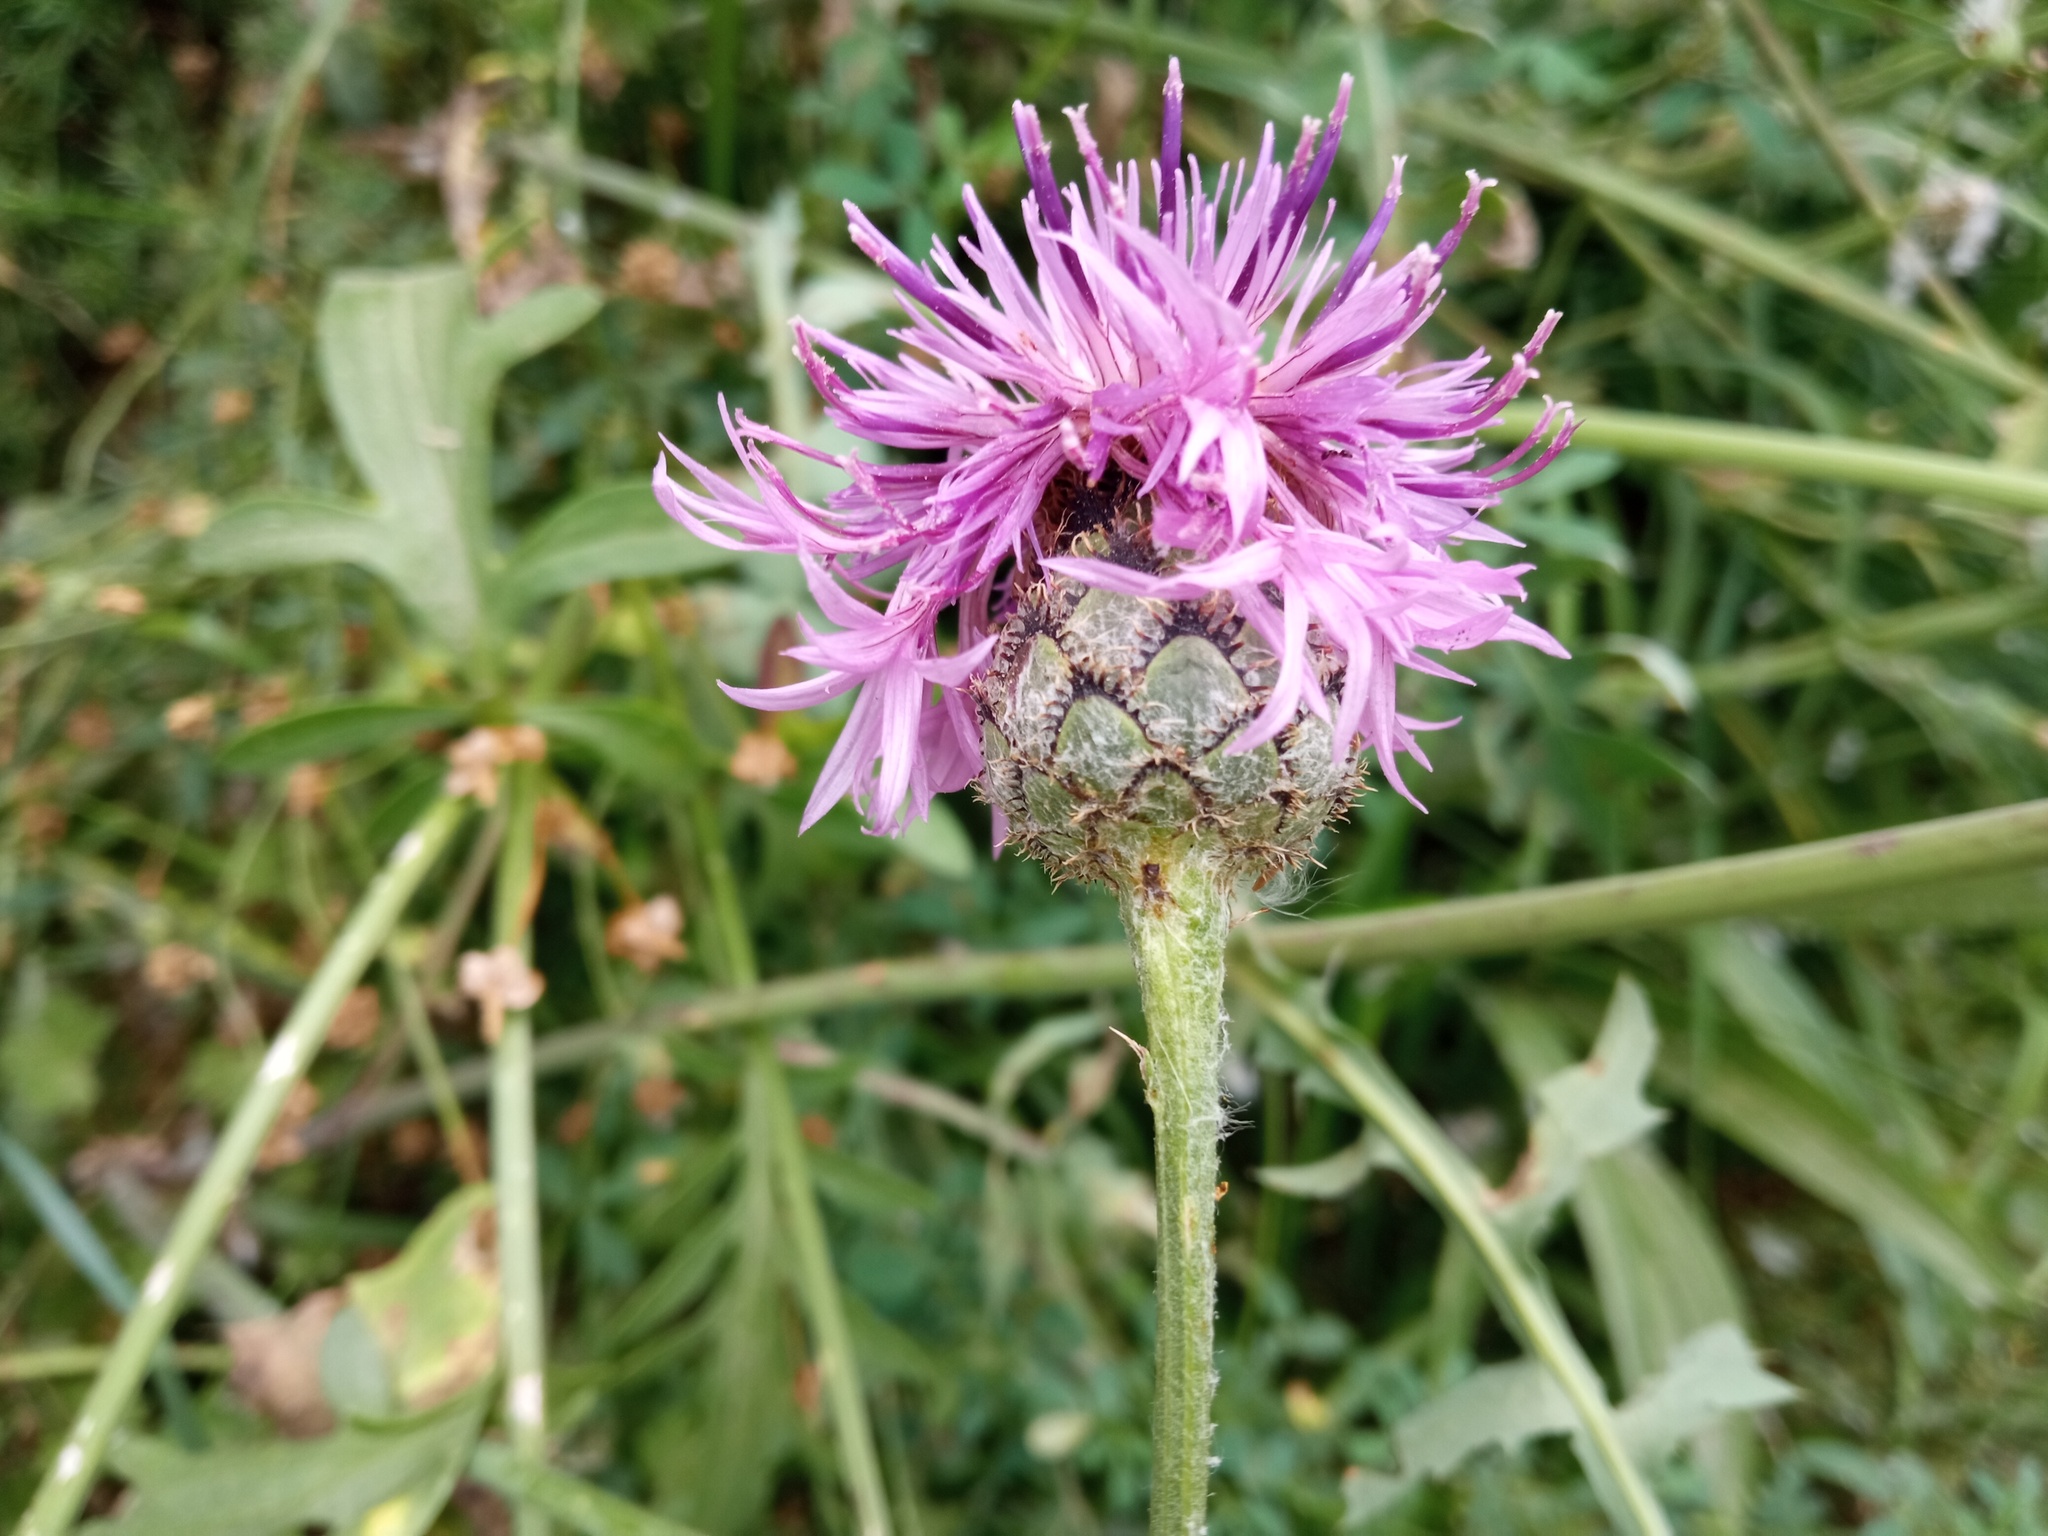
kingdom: Plantae
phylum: Tracheophyta
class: Magnoliopsida
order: Asterales
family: Asteraceae
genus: Centaurea
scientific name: Centaurea scabiosa
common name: Greater knapweed
